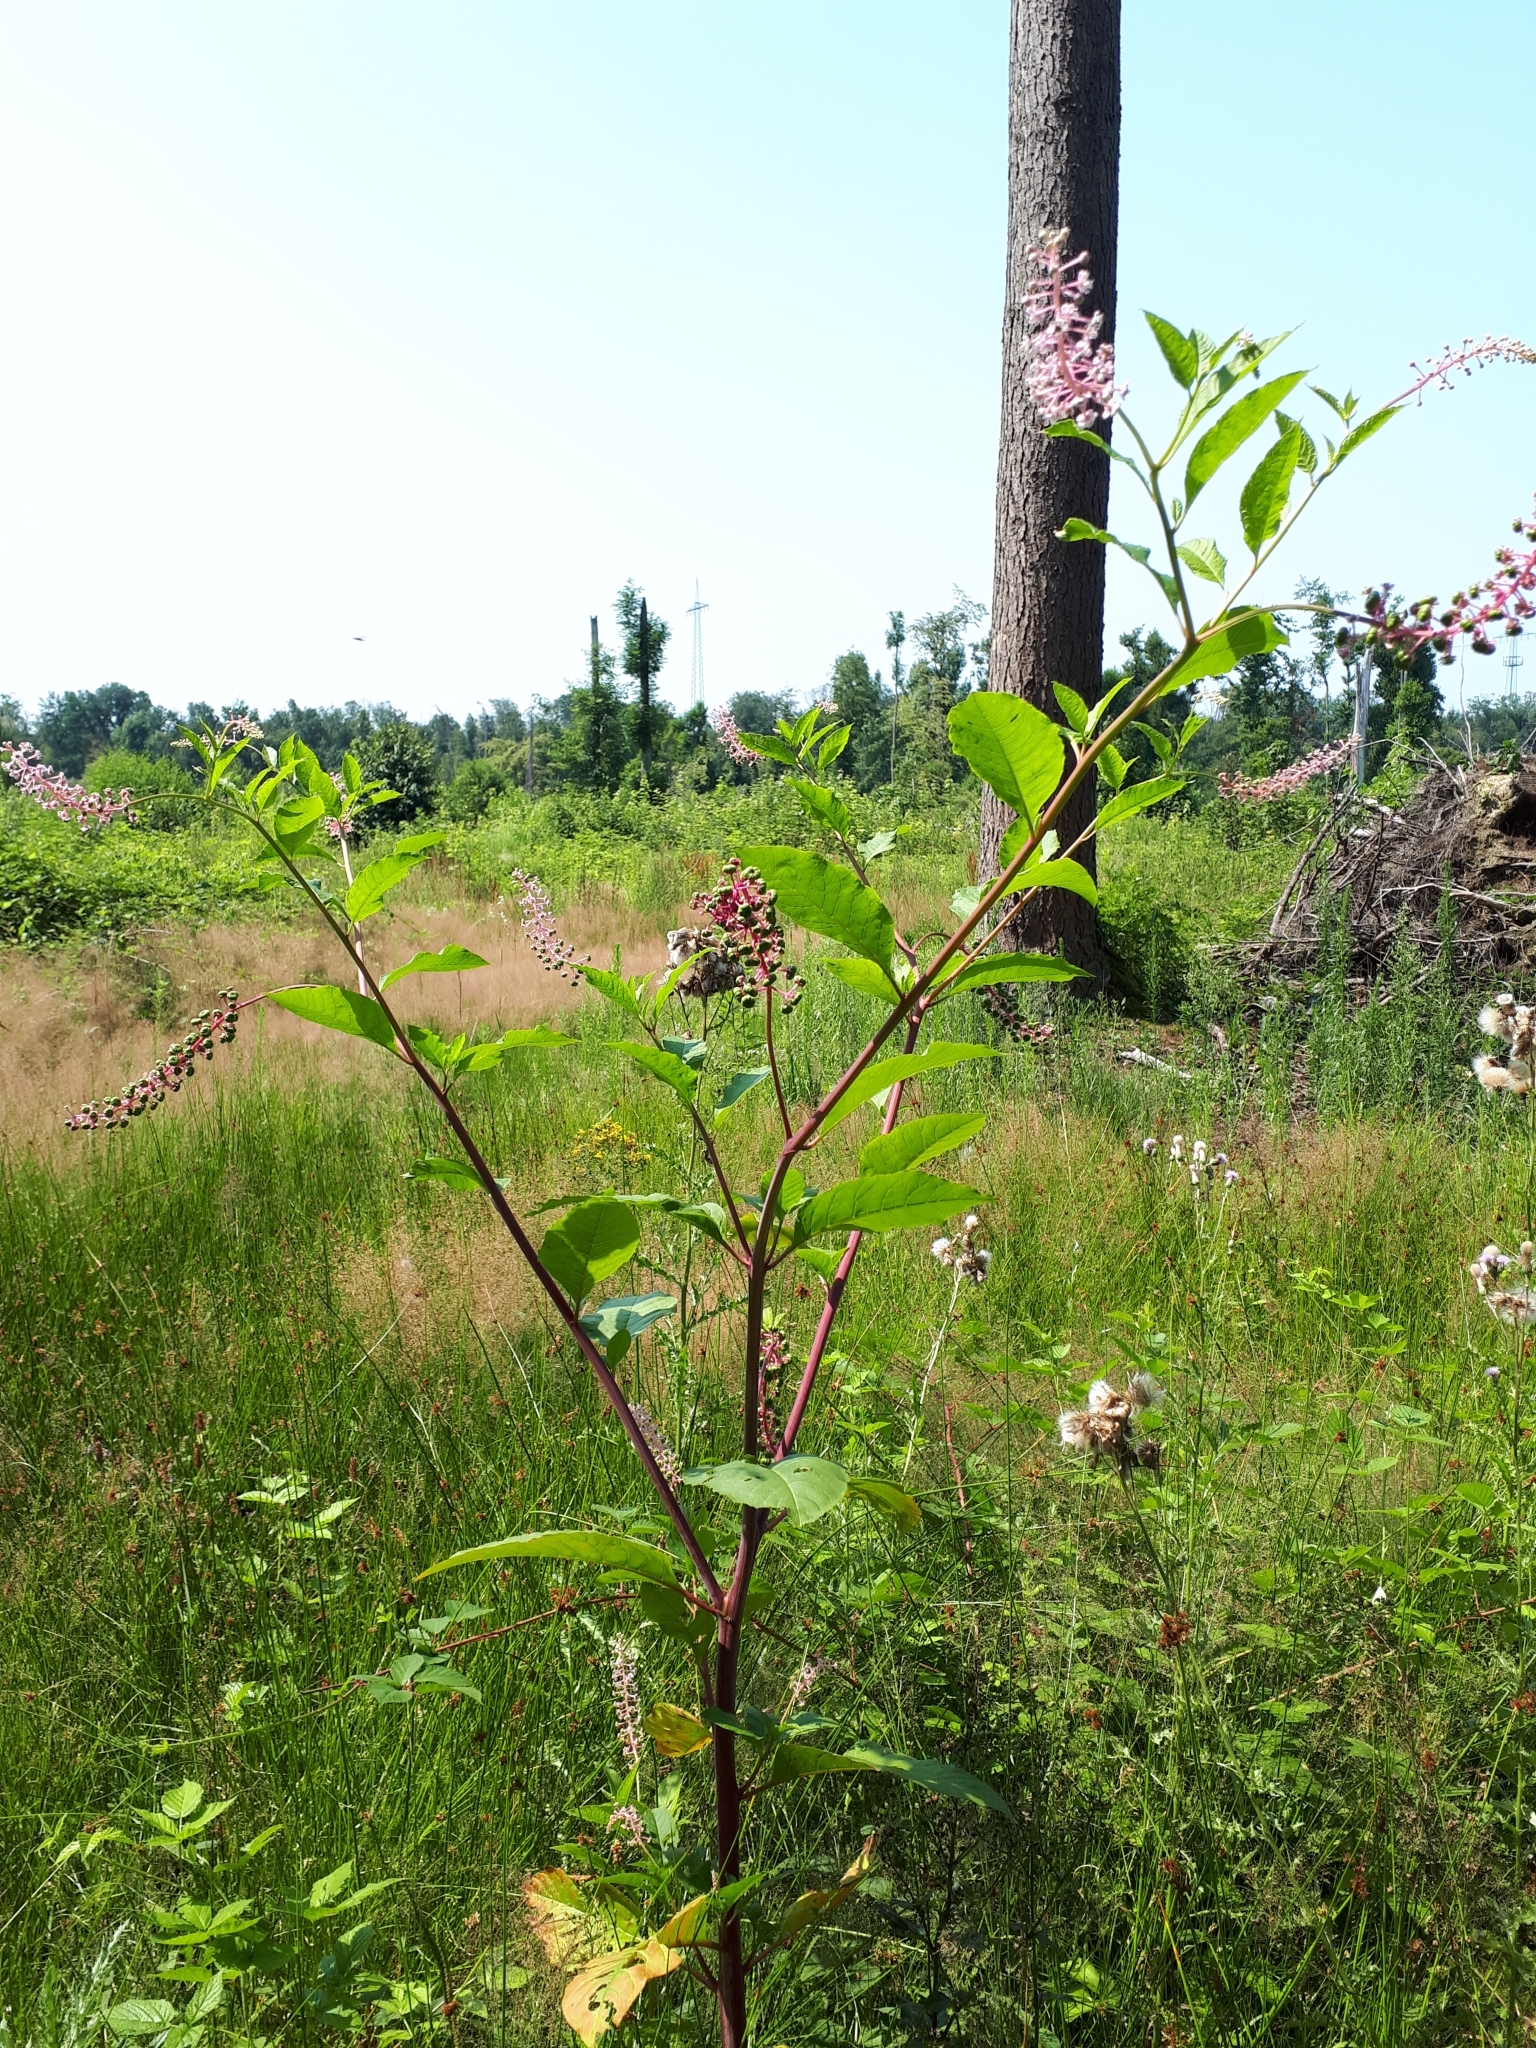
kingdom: Plantae
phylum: Tracheophyta
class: Magnoliopsida
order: Caryophyllales
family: Phytolaccaceae
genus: Phytolacca
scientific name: Phytolacca americana
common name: American pokeweed
